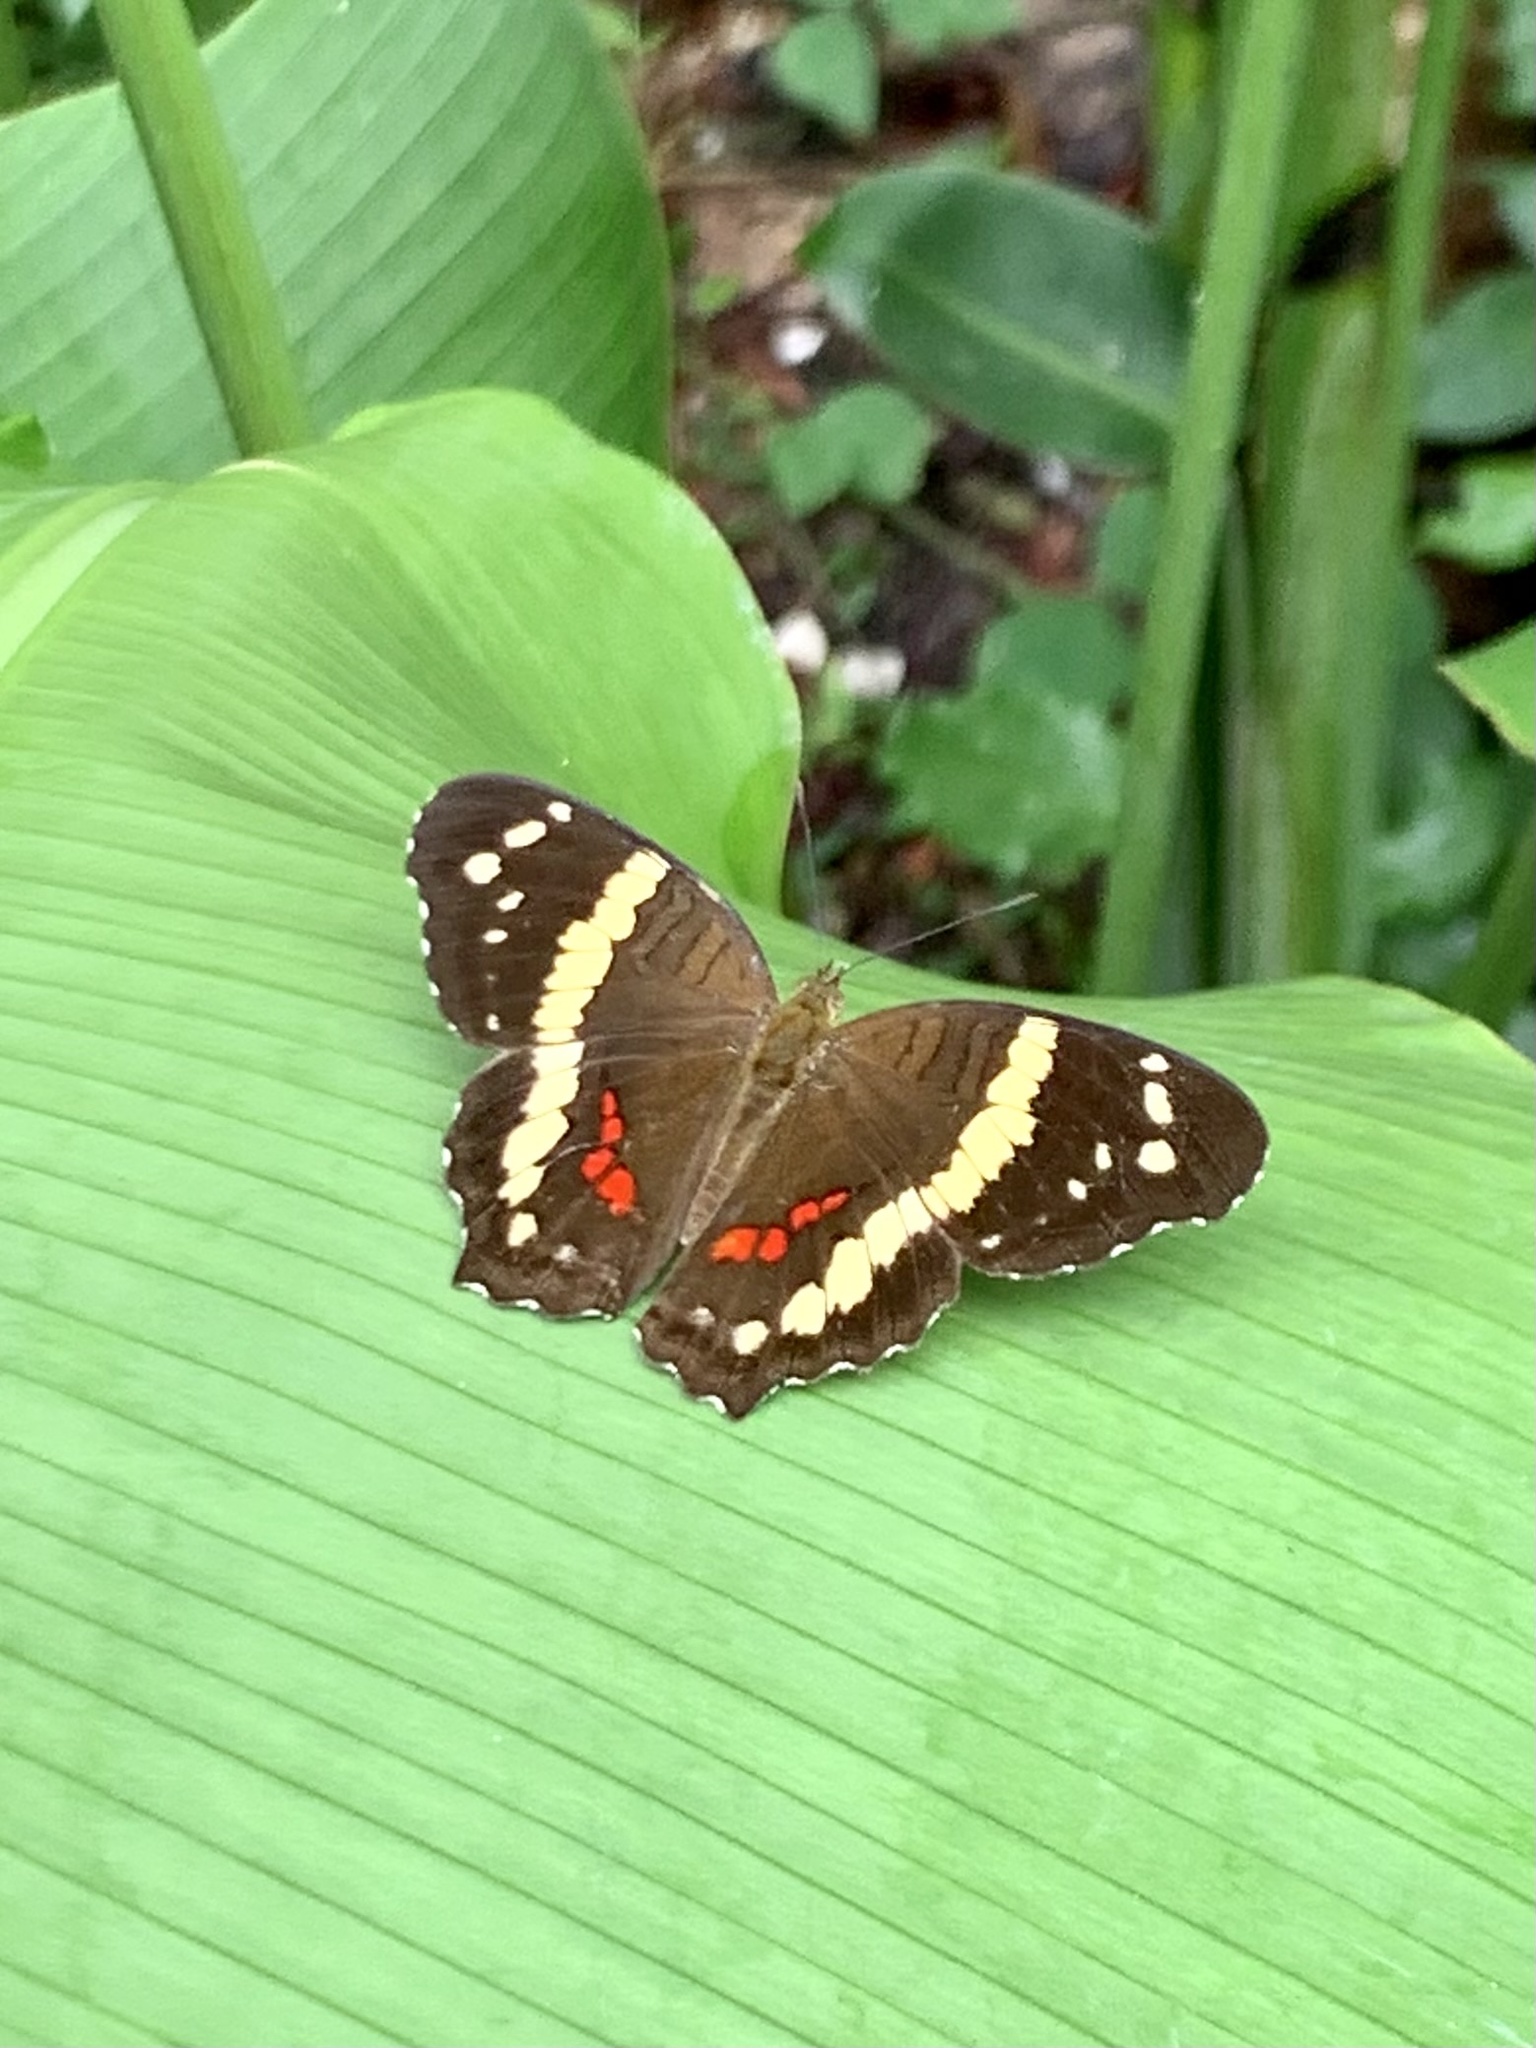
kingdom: Animalia
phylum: Arthropoda
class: Insecta
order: Lepidoptera
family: Nymphalidae
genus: Anartia
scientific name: Anartia fatima
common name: Banded peacock
